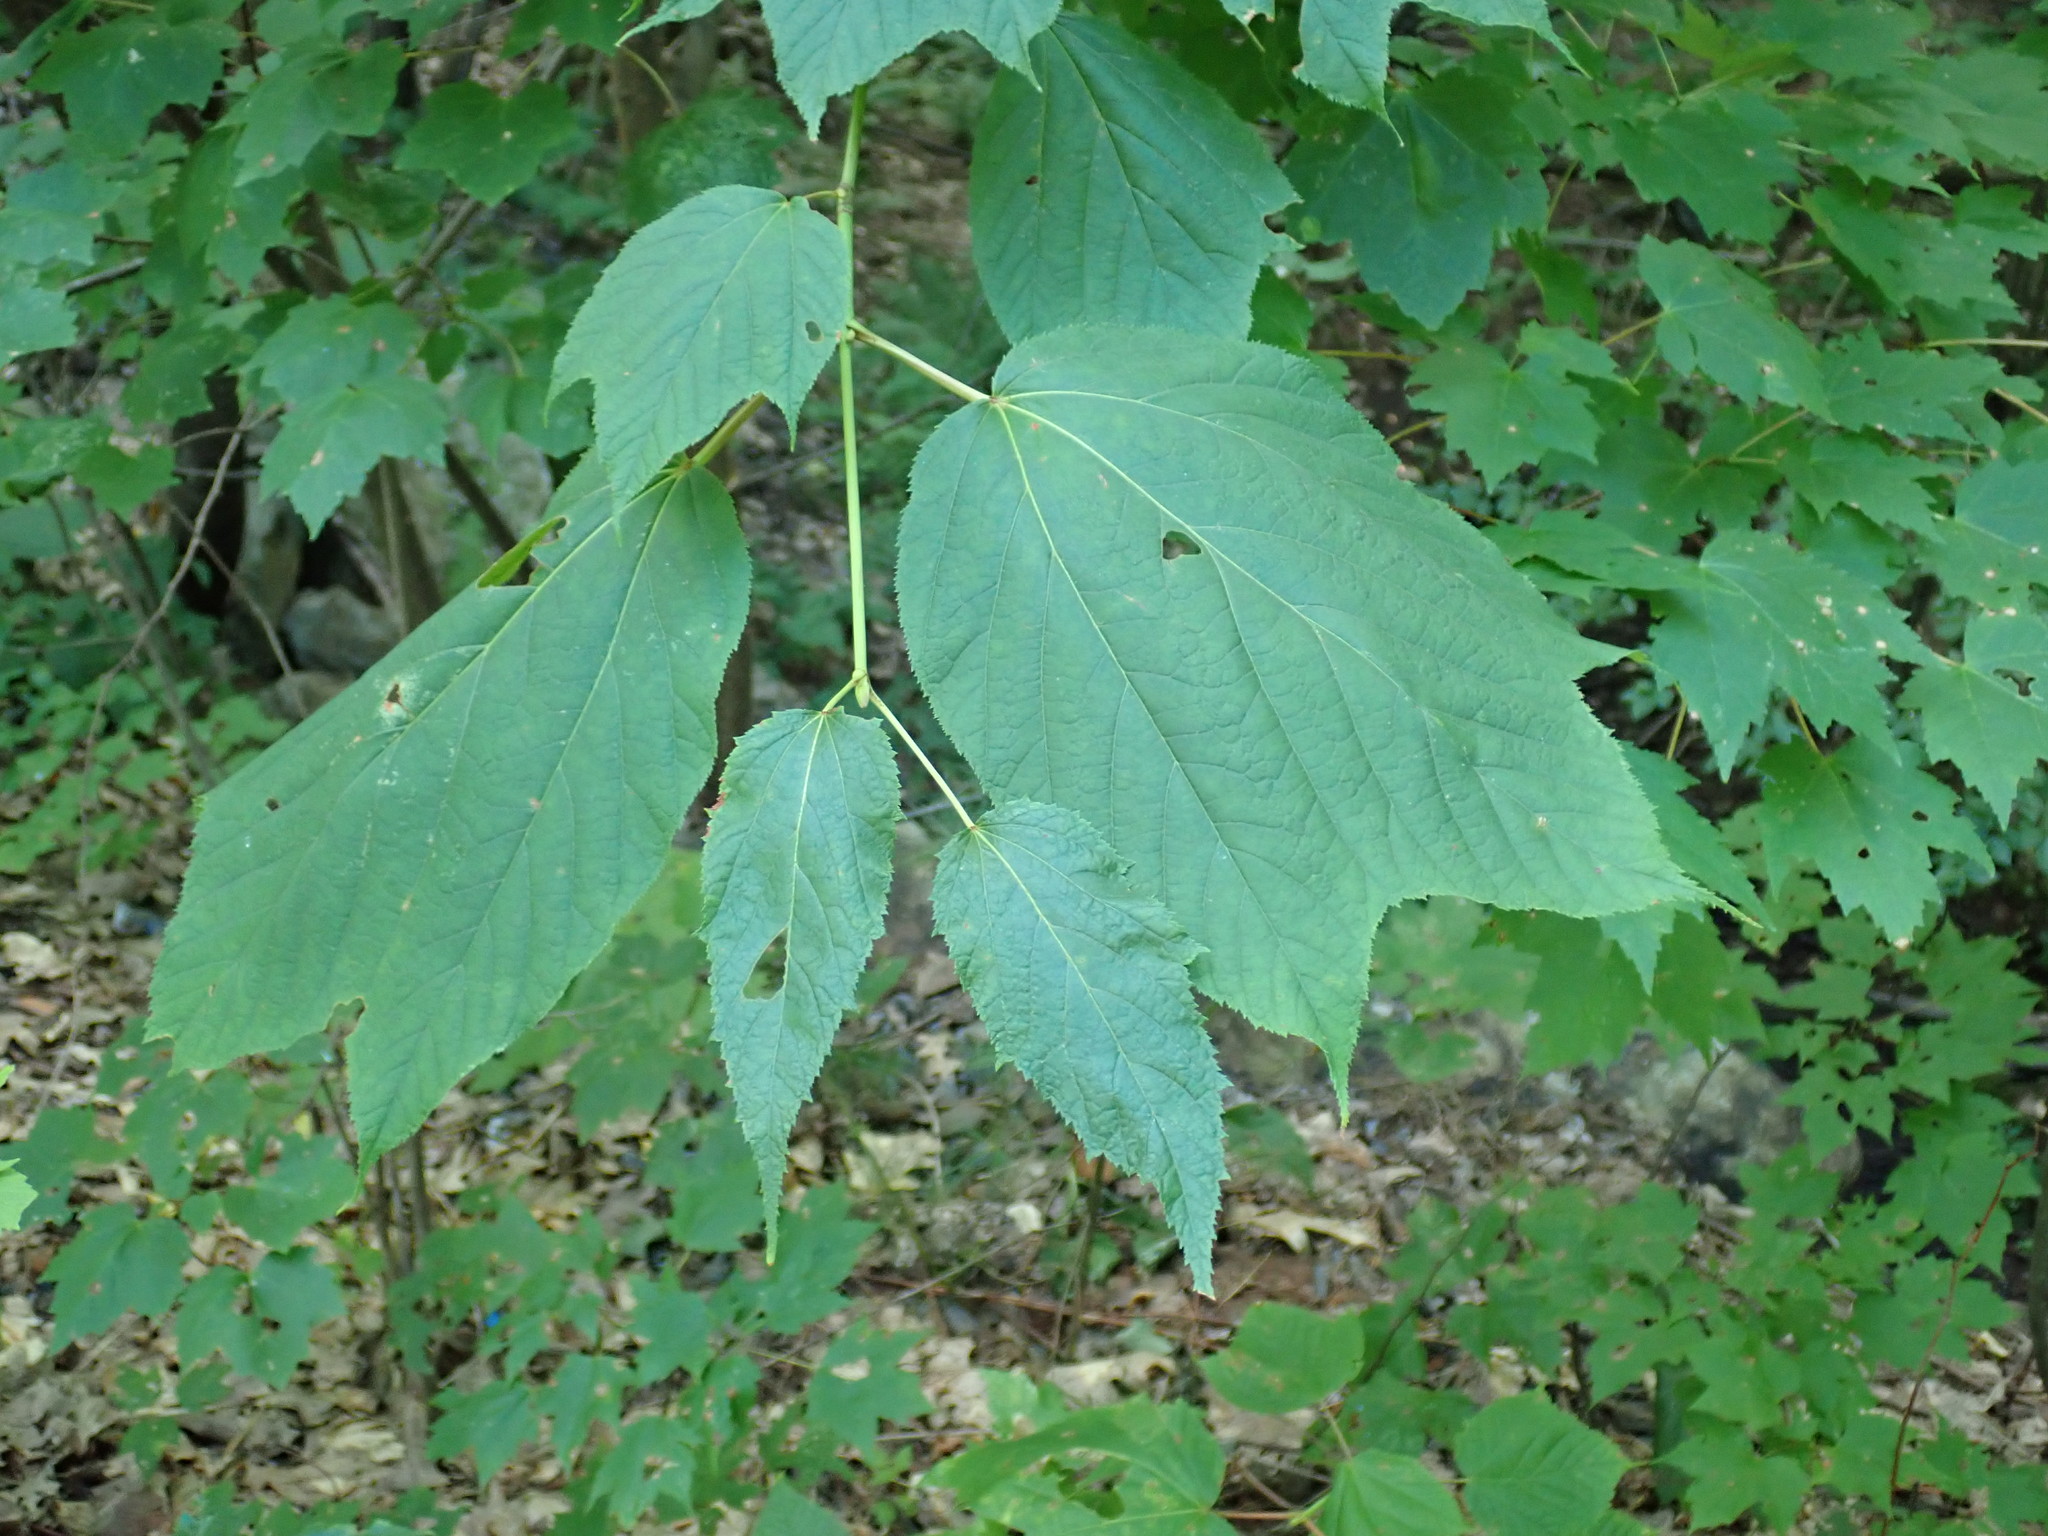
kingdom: Plantae
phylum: Tracheophyta
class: Magnoliopsida
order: Sapindales
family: Sapindaceae
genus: Acer
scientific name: Acer pensylvanicum
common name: Moosewood
